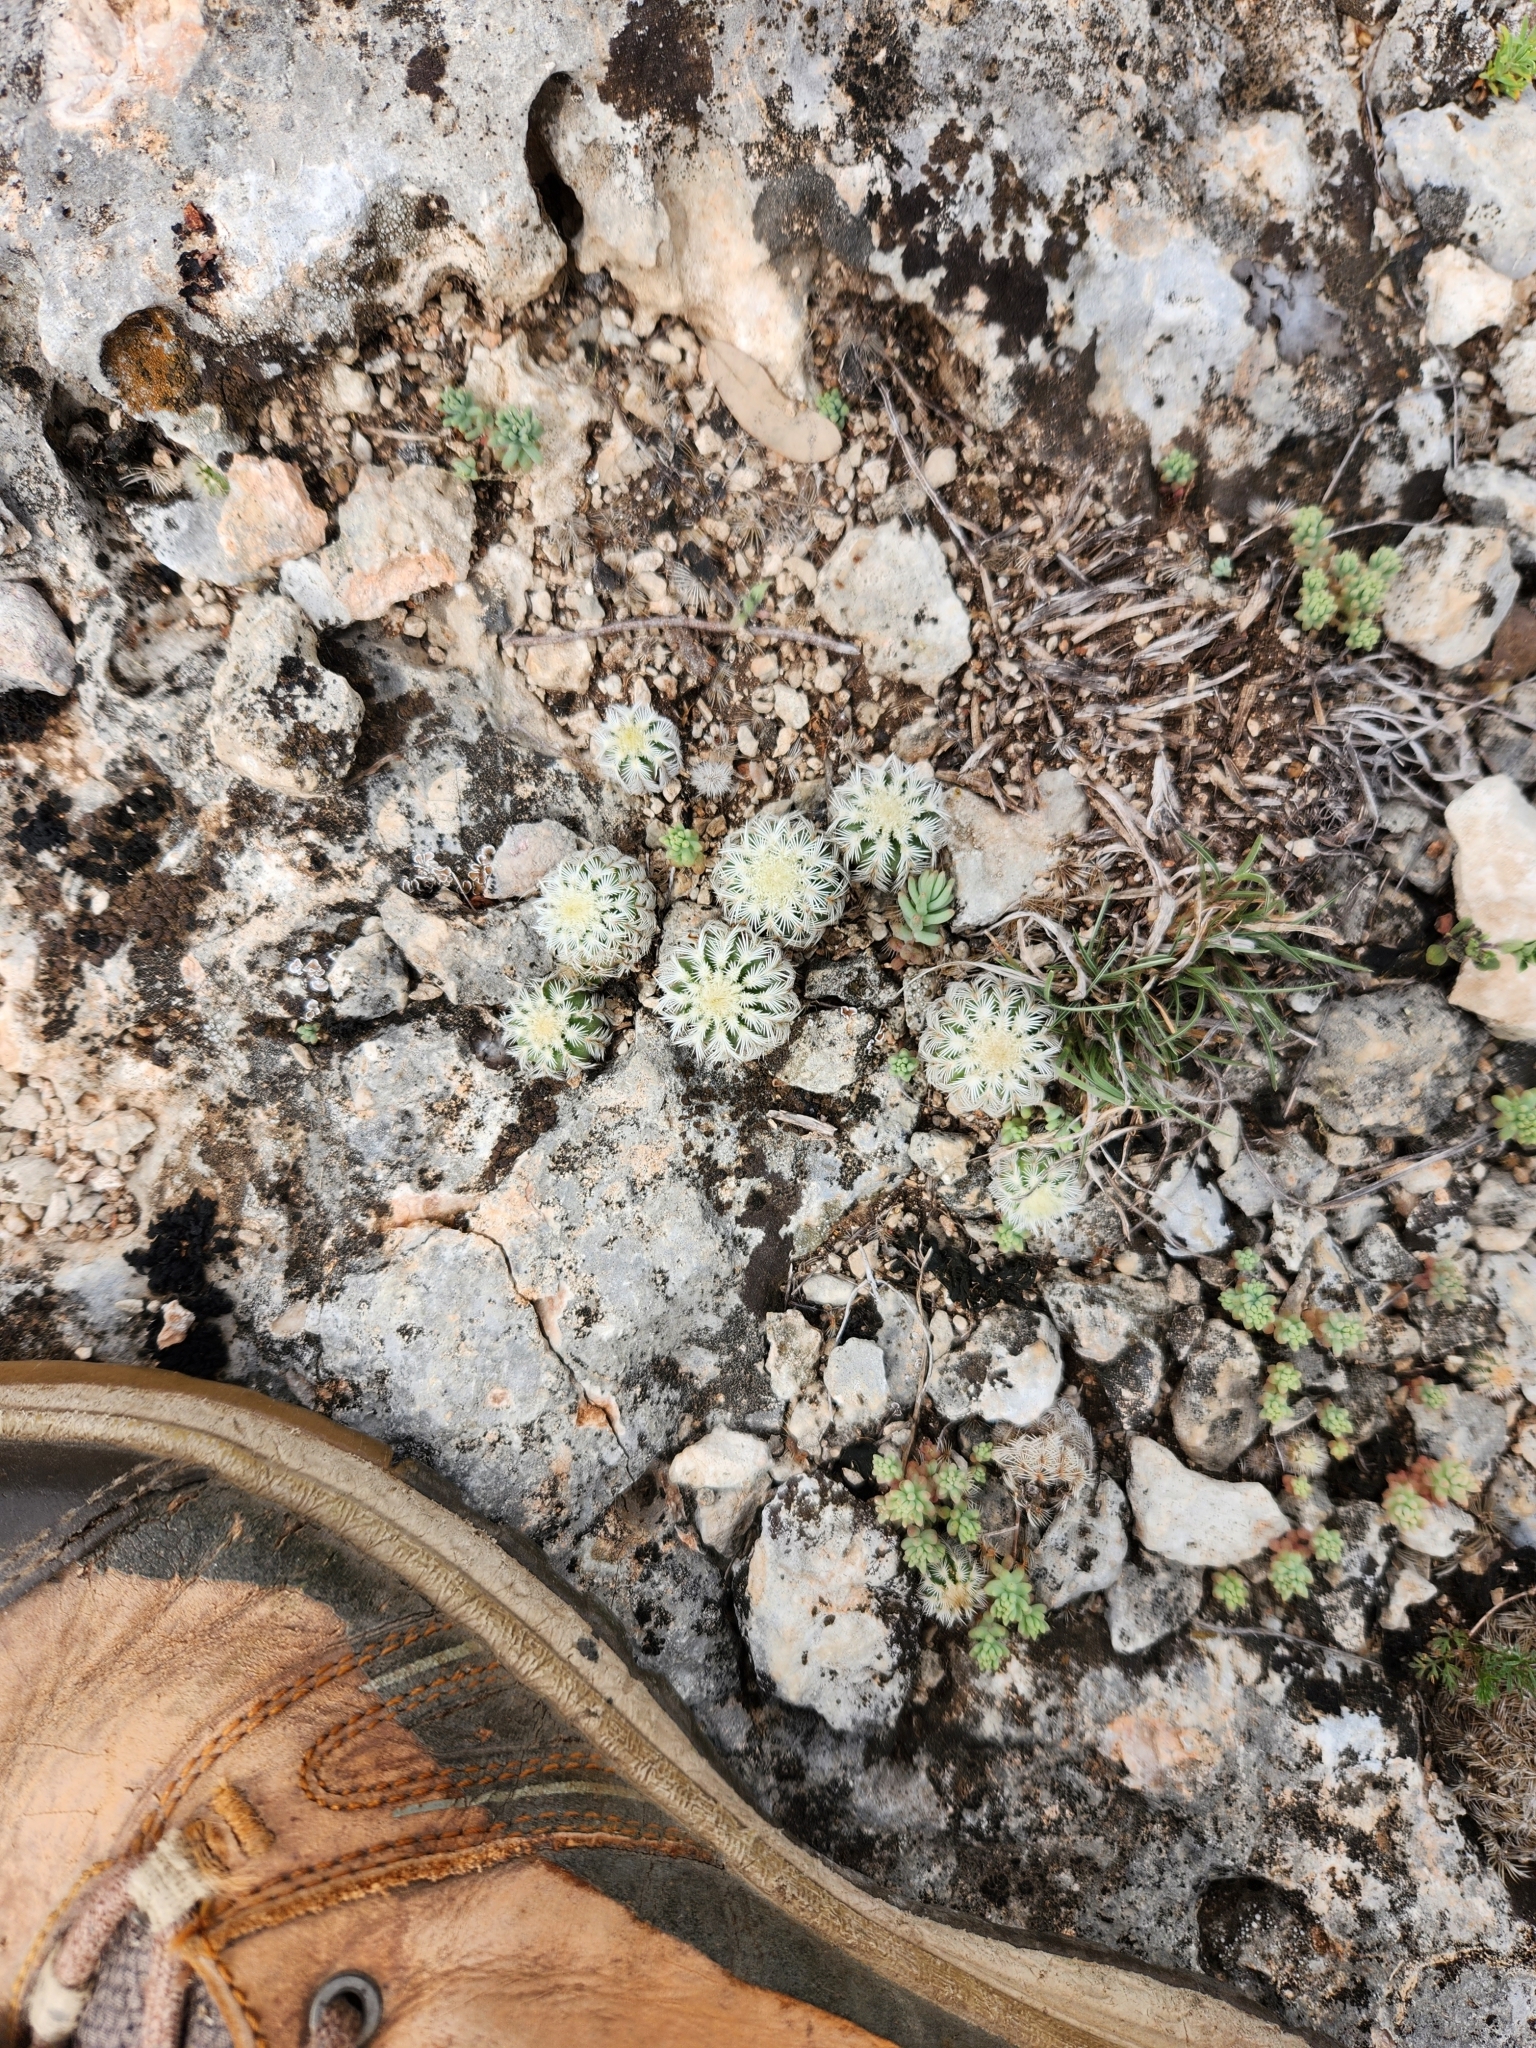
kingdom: Plantae
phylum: Tracheophyta
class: Magnoliopsida
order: Caryophyllales
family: Cactaceae
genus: Echinocereus
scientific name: Echinocereus reichenbachii
